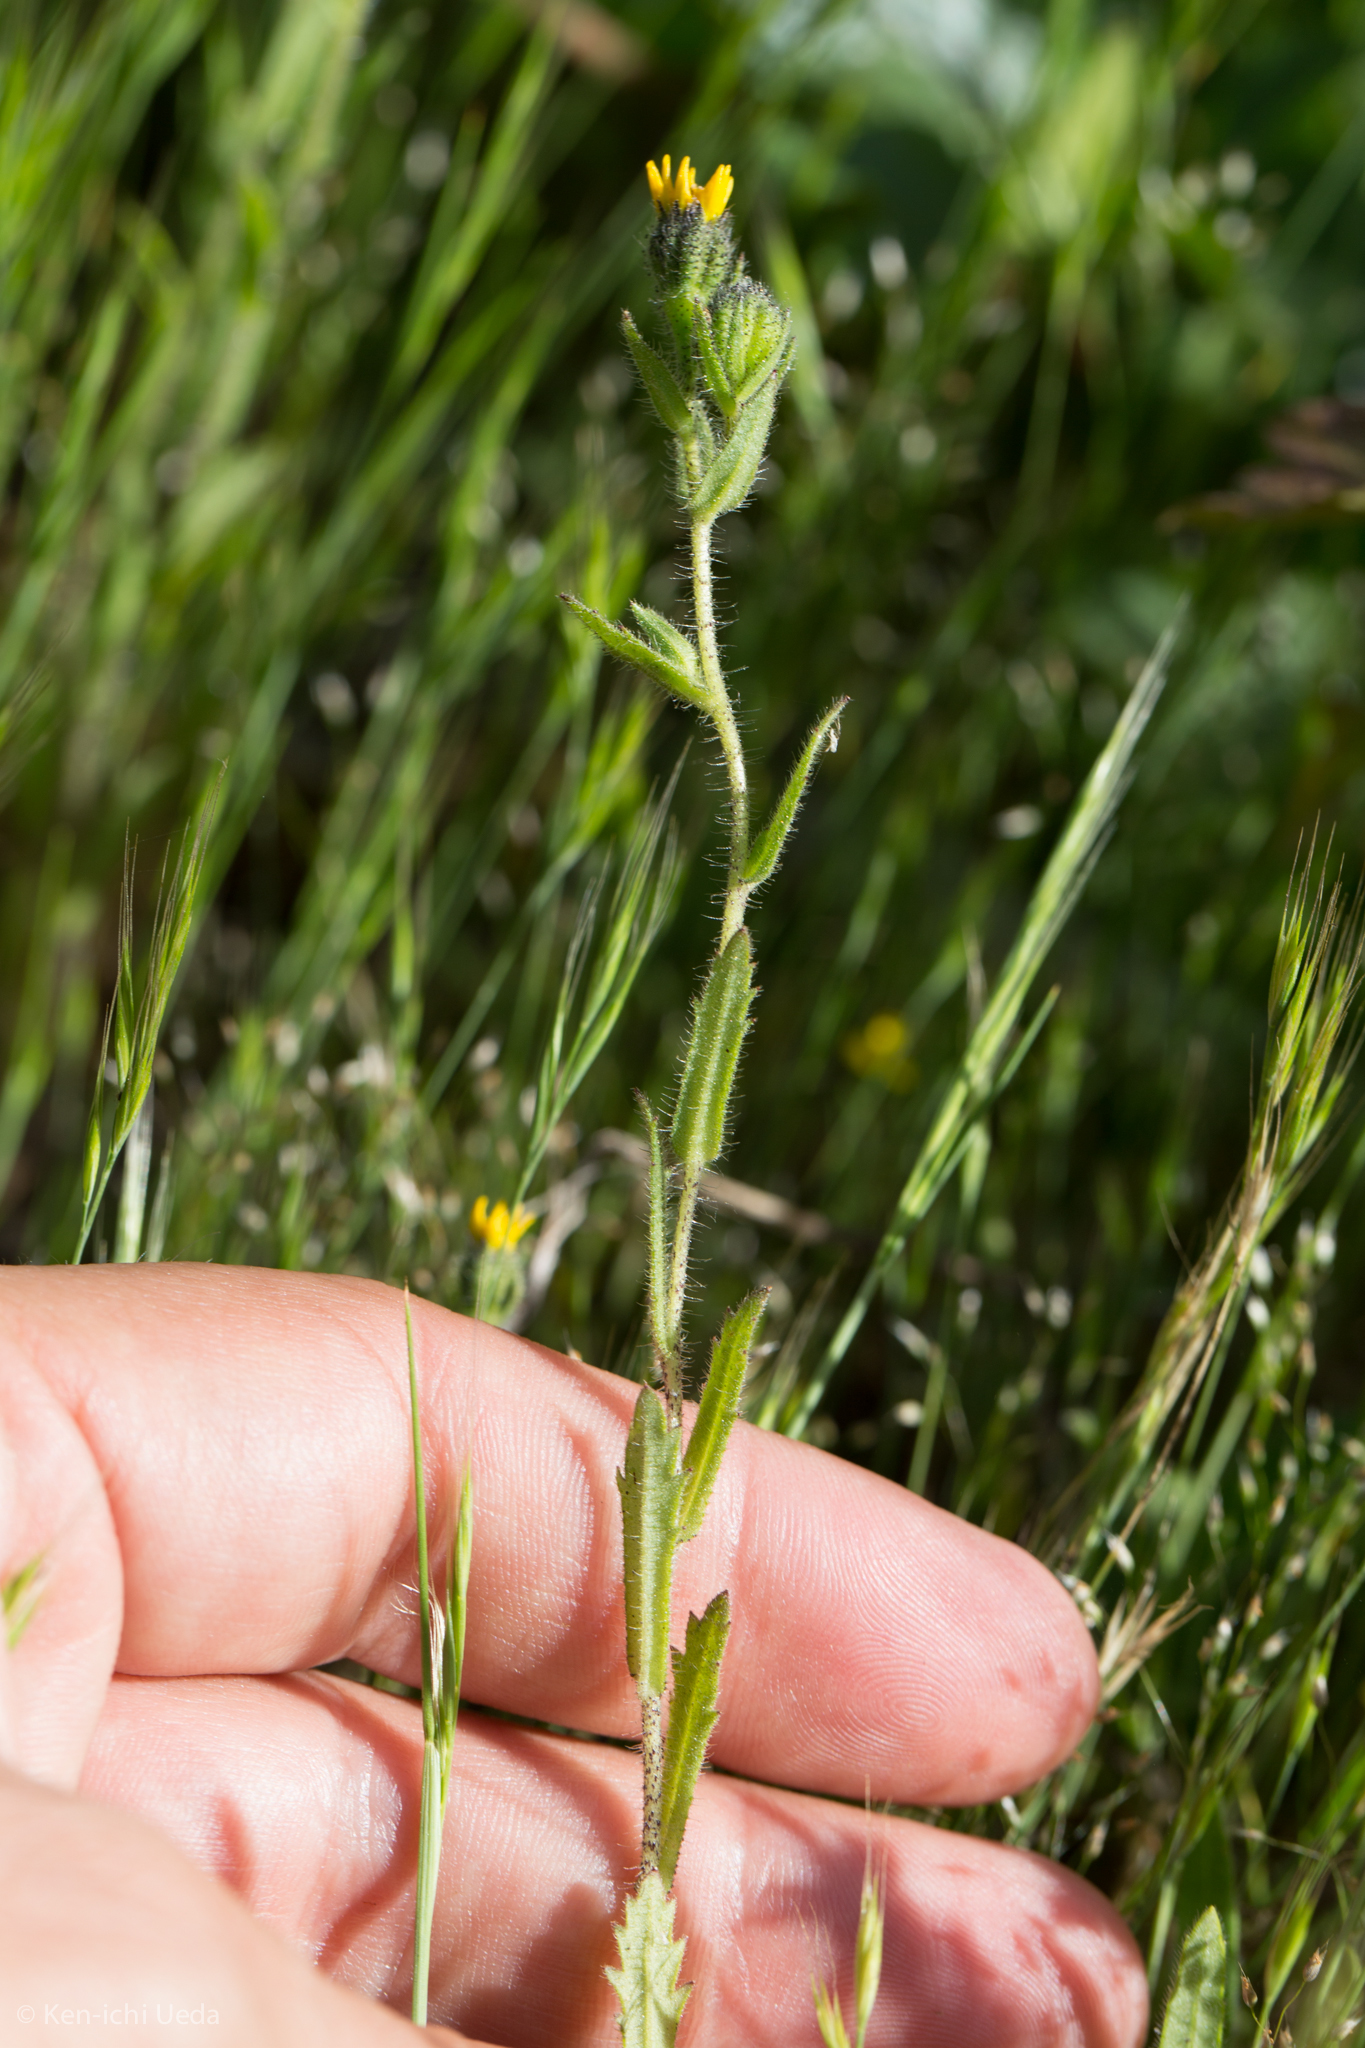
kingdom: Plantae
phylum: Tracheophyta
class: Magnoliopsida
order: Asterales
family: Asteraceae
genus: Layia
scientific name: Layia hieracioides
